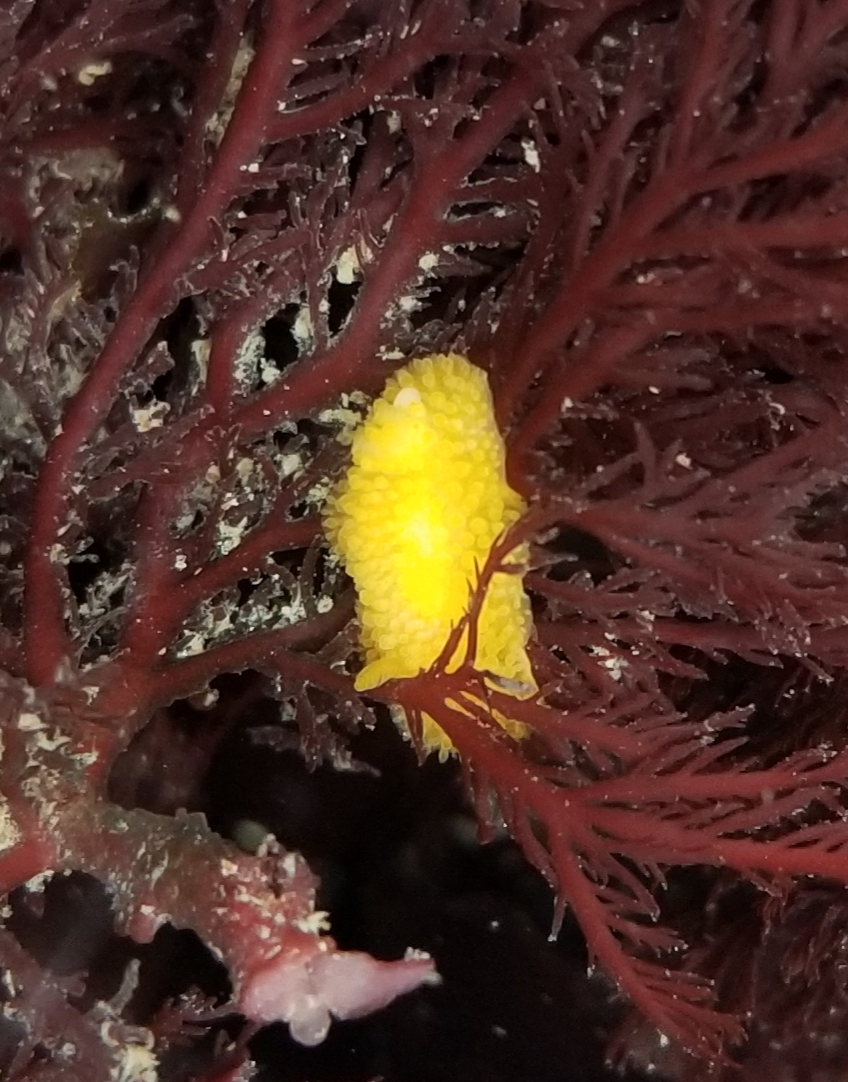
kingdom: Animalia
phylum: Mollusca
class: Gastropoda
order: Nudibranchia
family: Onchidorididae
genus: Atalodoris
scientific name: Atalodoris jannae
